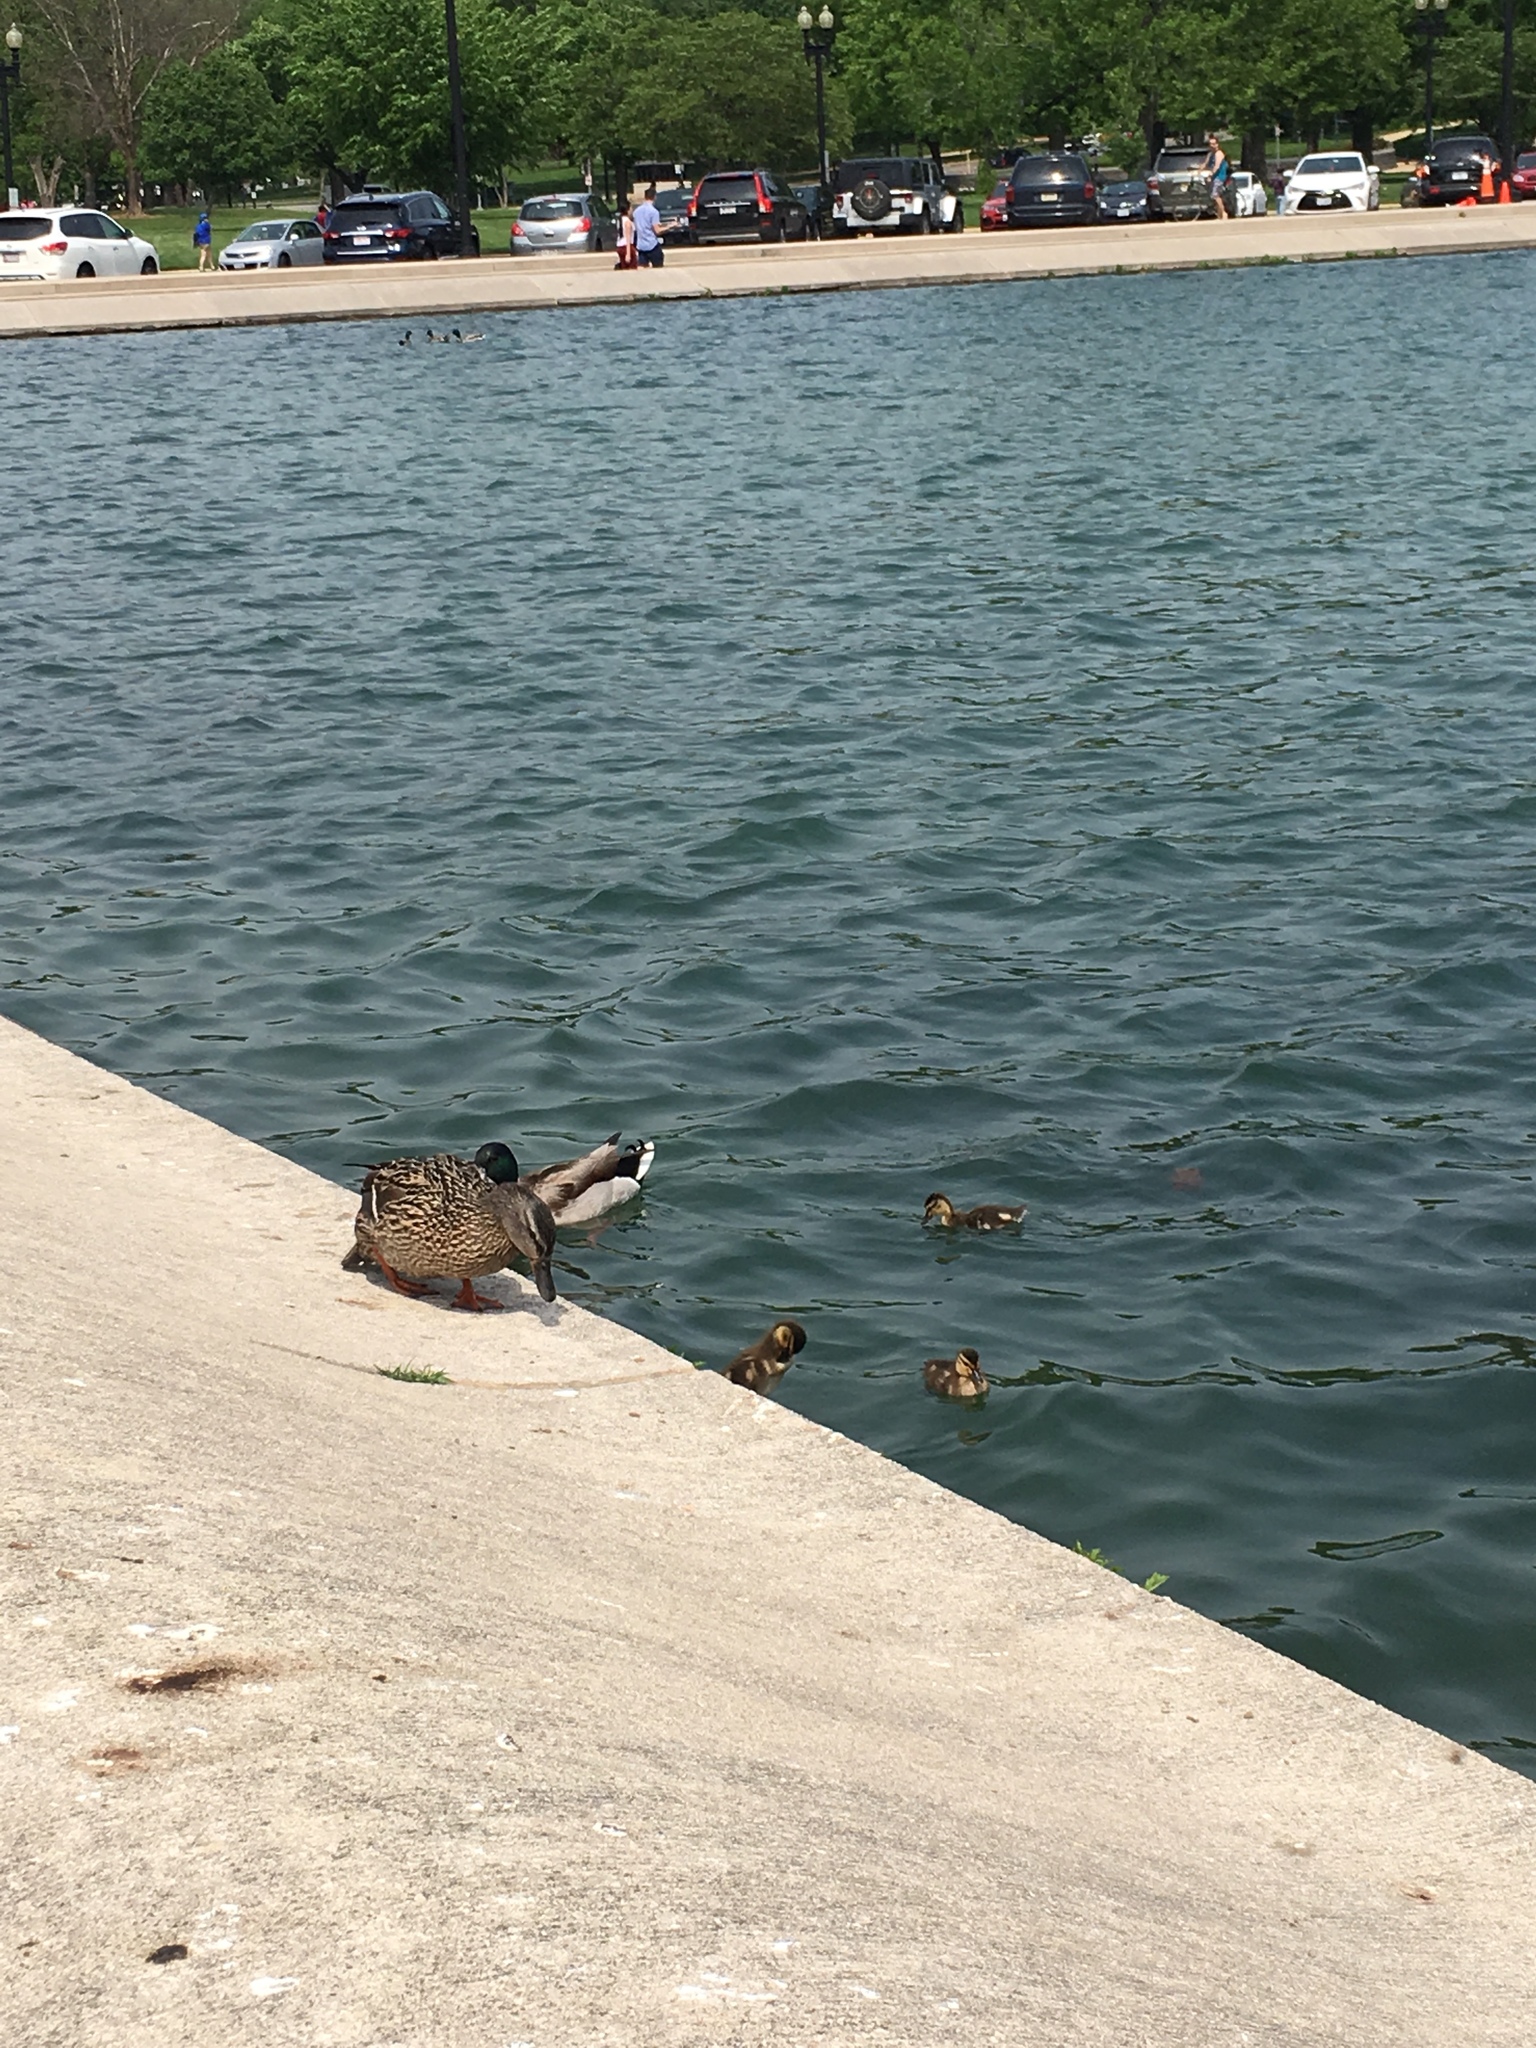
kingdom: Animalia
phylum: Chordata
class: Aves
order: Anseriformes
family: Anatidae
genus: Anas
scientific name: Anas platyrhynchos
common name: Mallard
